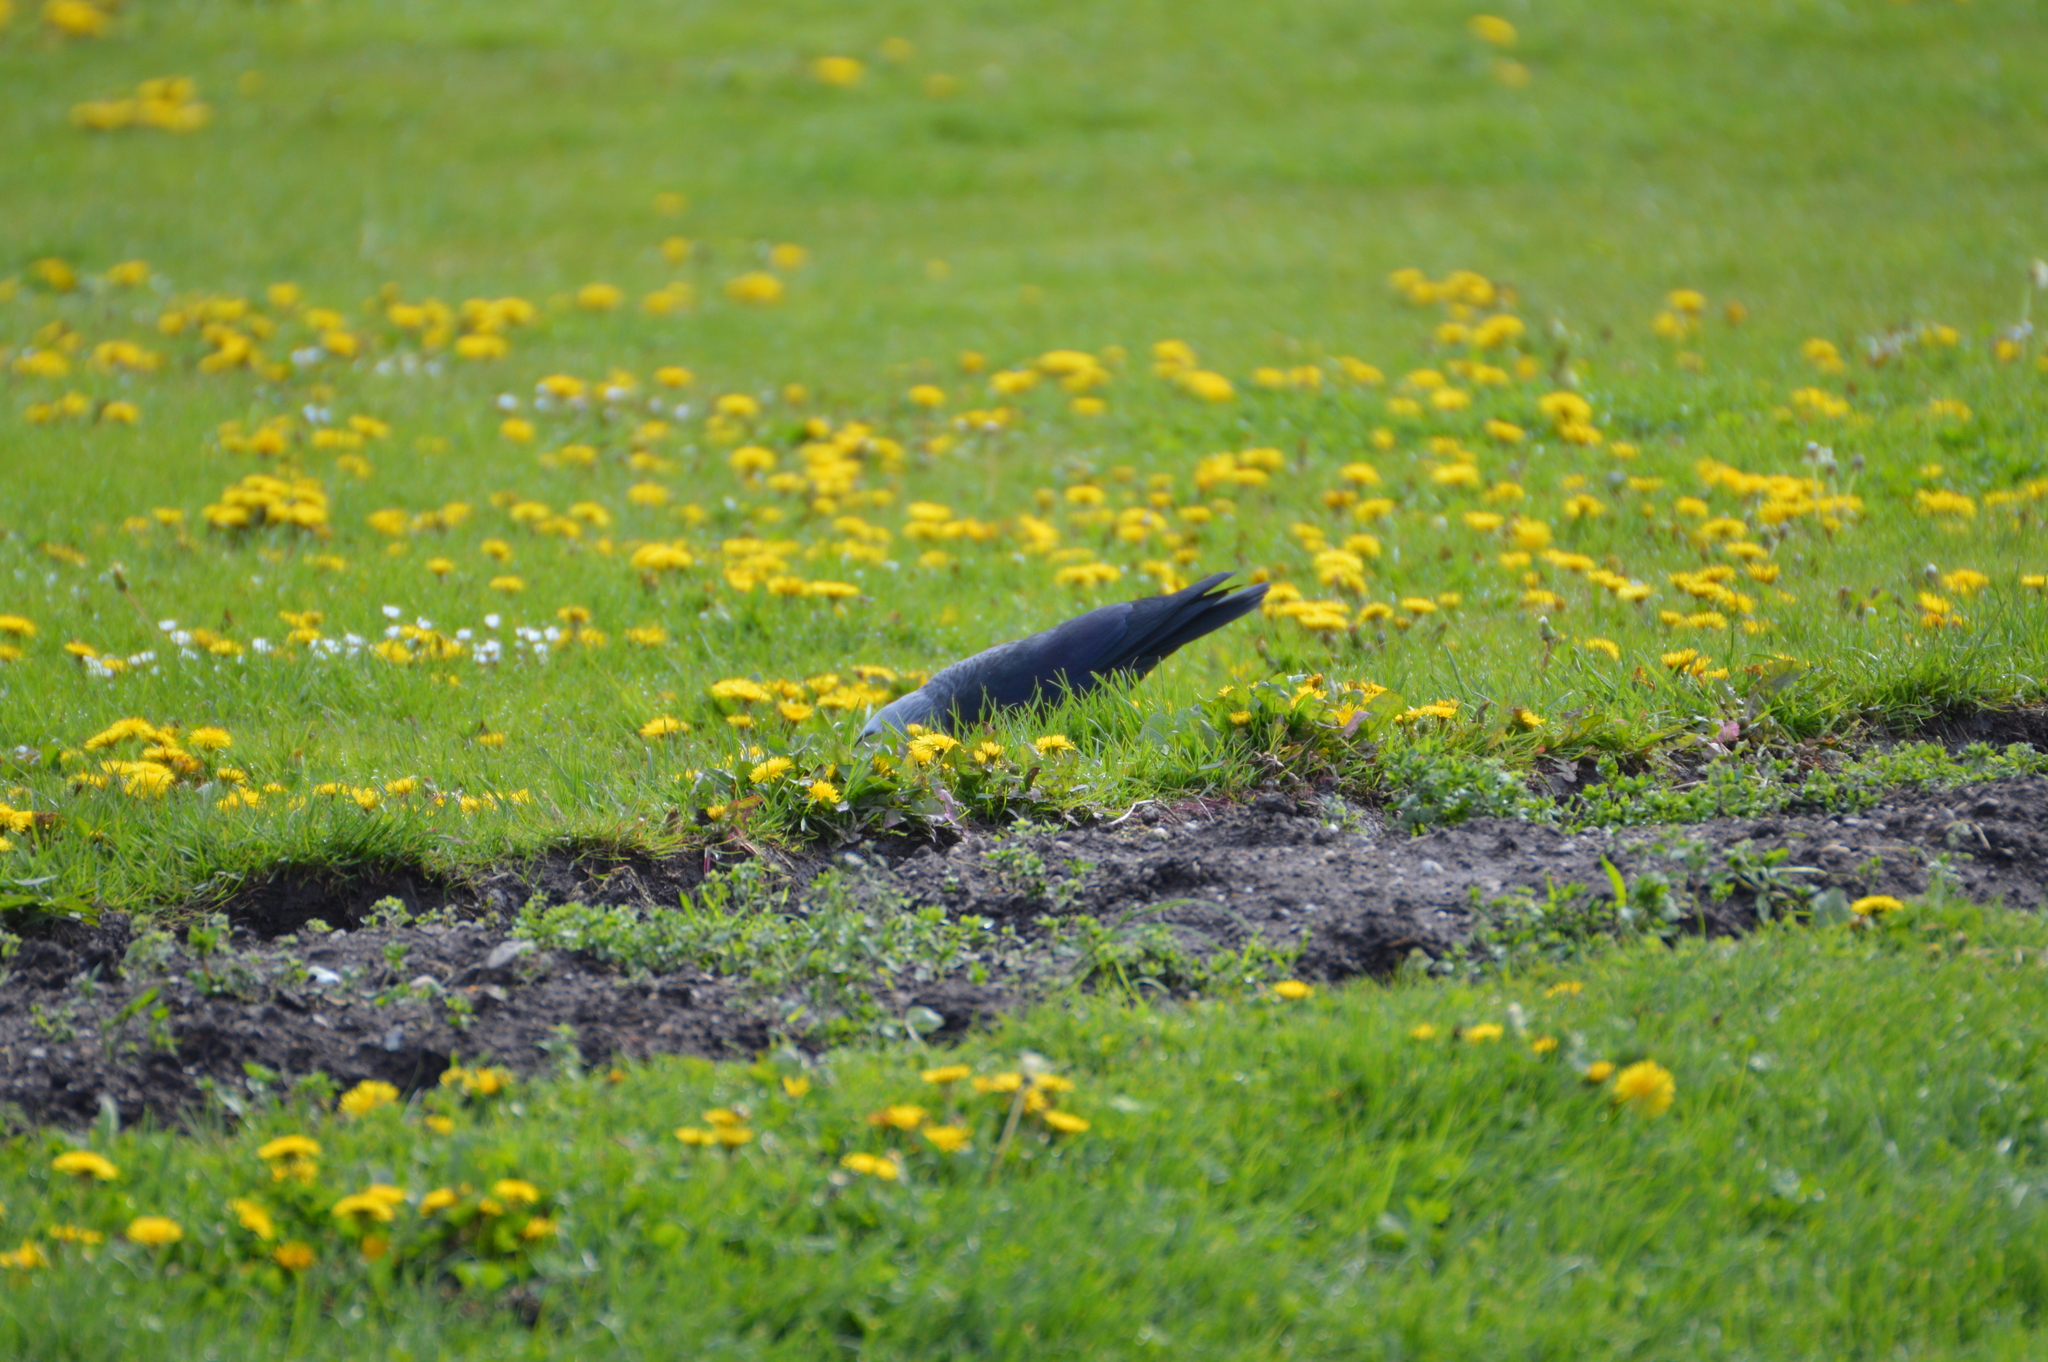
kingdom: Animalia
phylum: Chordata
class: Aves
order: Passeriformes
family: Corvidae
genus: Coloeus
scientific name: Coloeus monedula
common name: Western jackdaw
